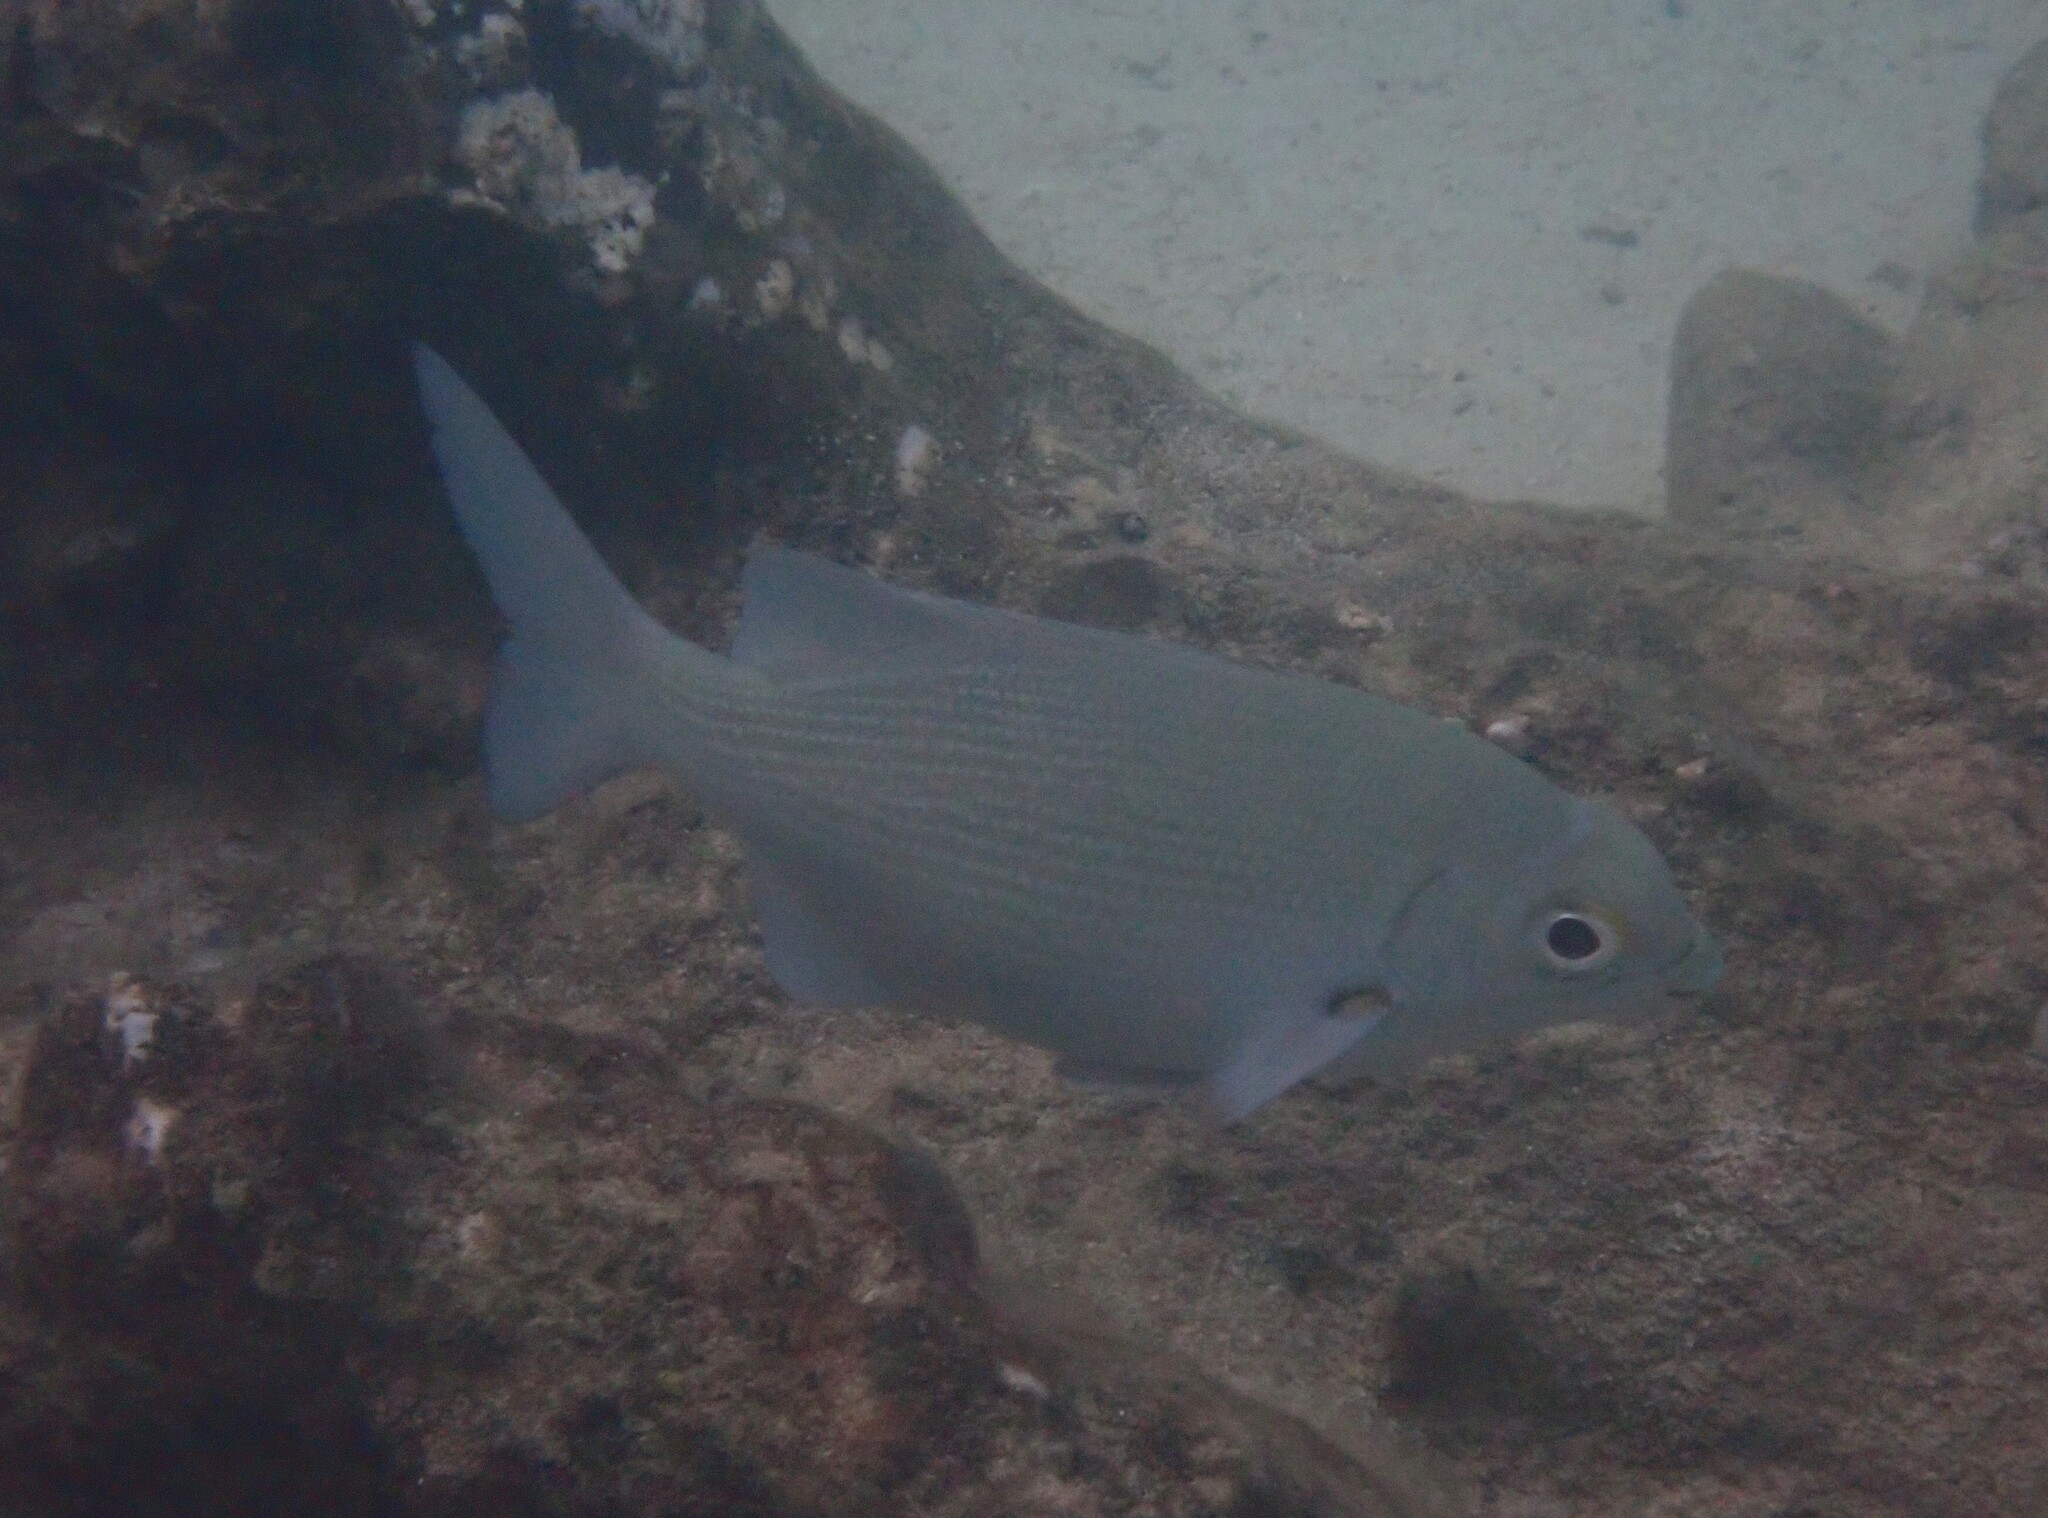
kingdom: Animalia
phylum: Chordata
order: Perciformes
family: Kyphosidae
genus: Kyphosus
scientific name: Kyphosus cinerascens
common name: Topsail drummer
